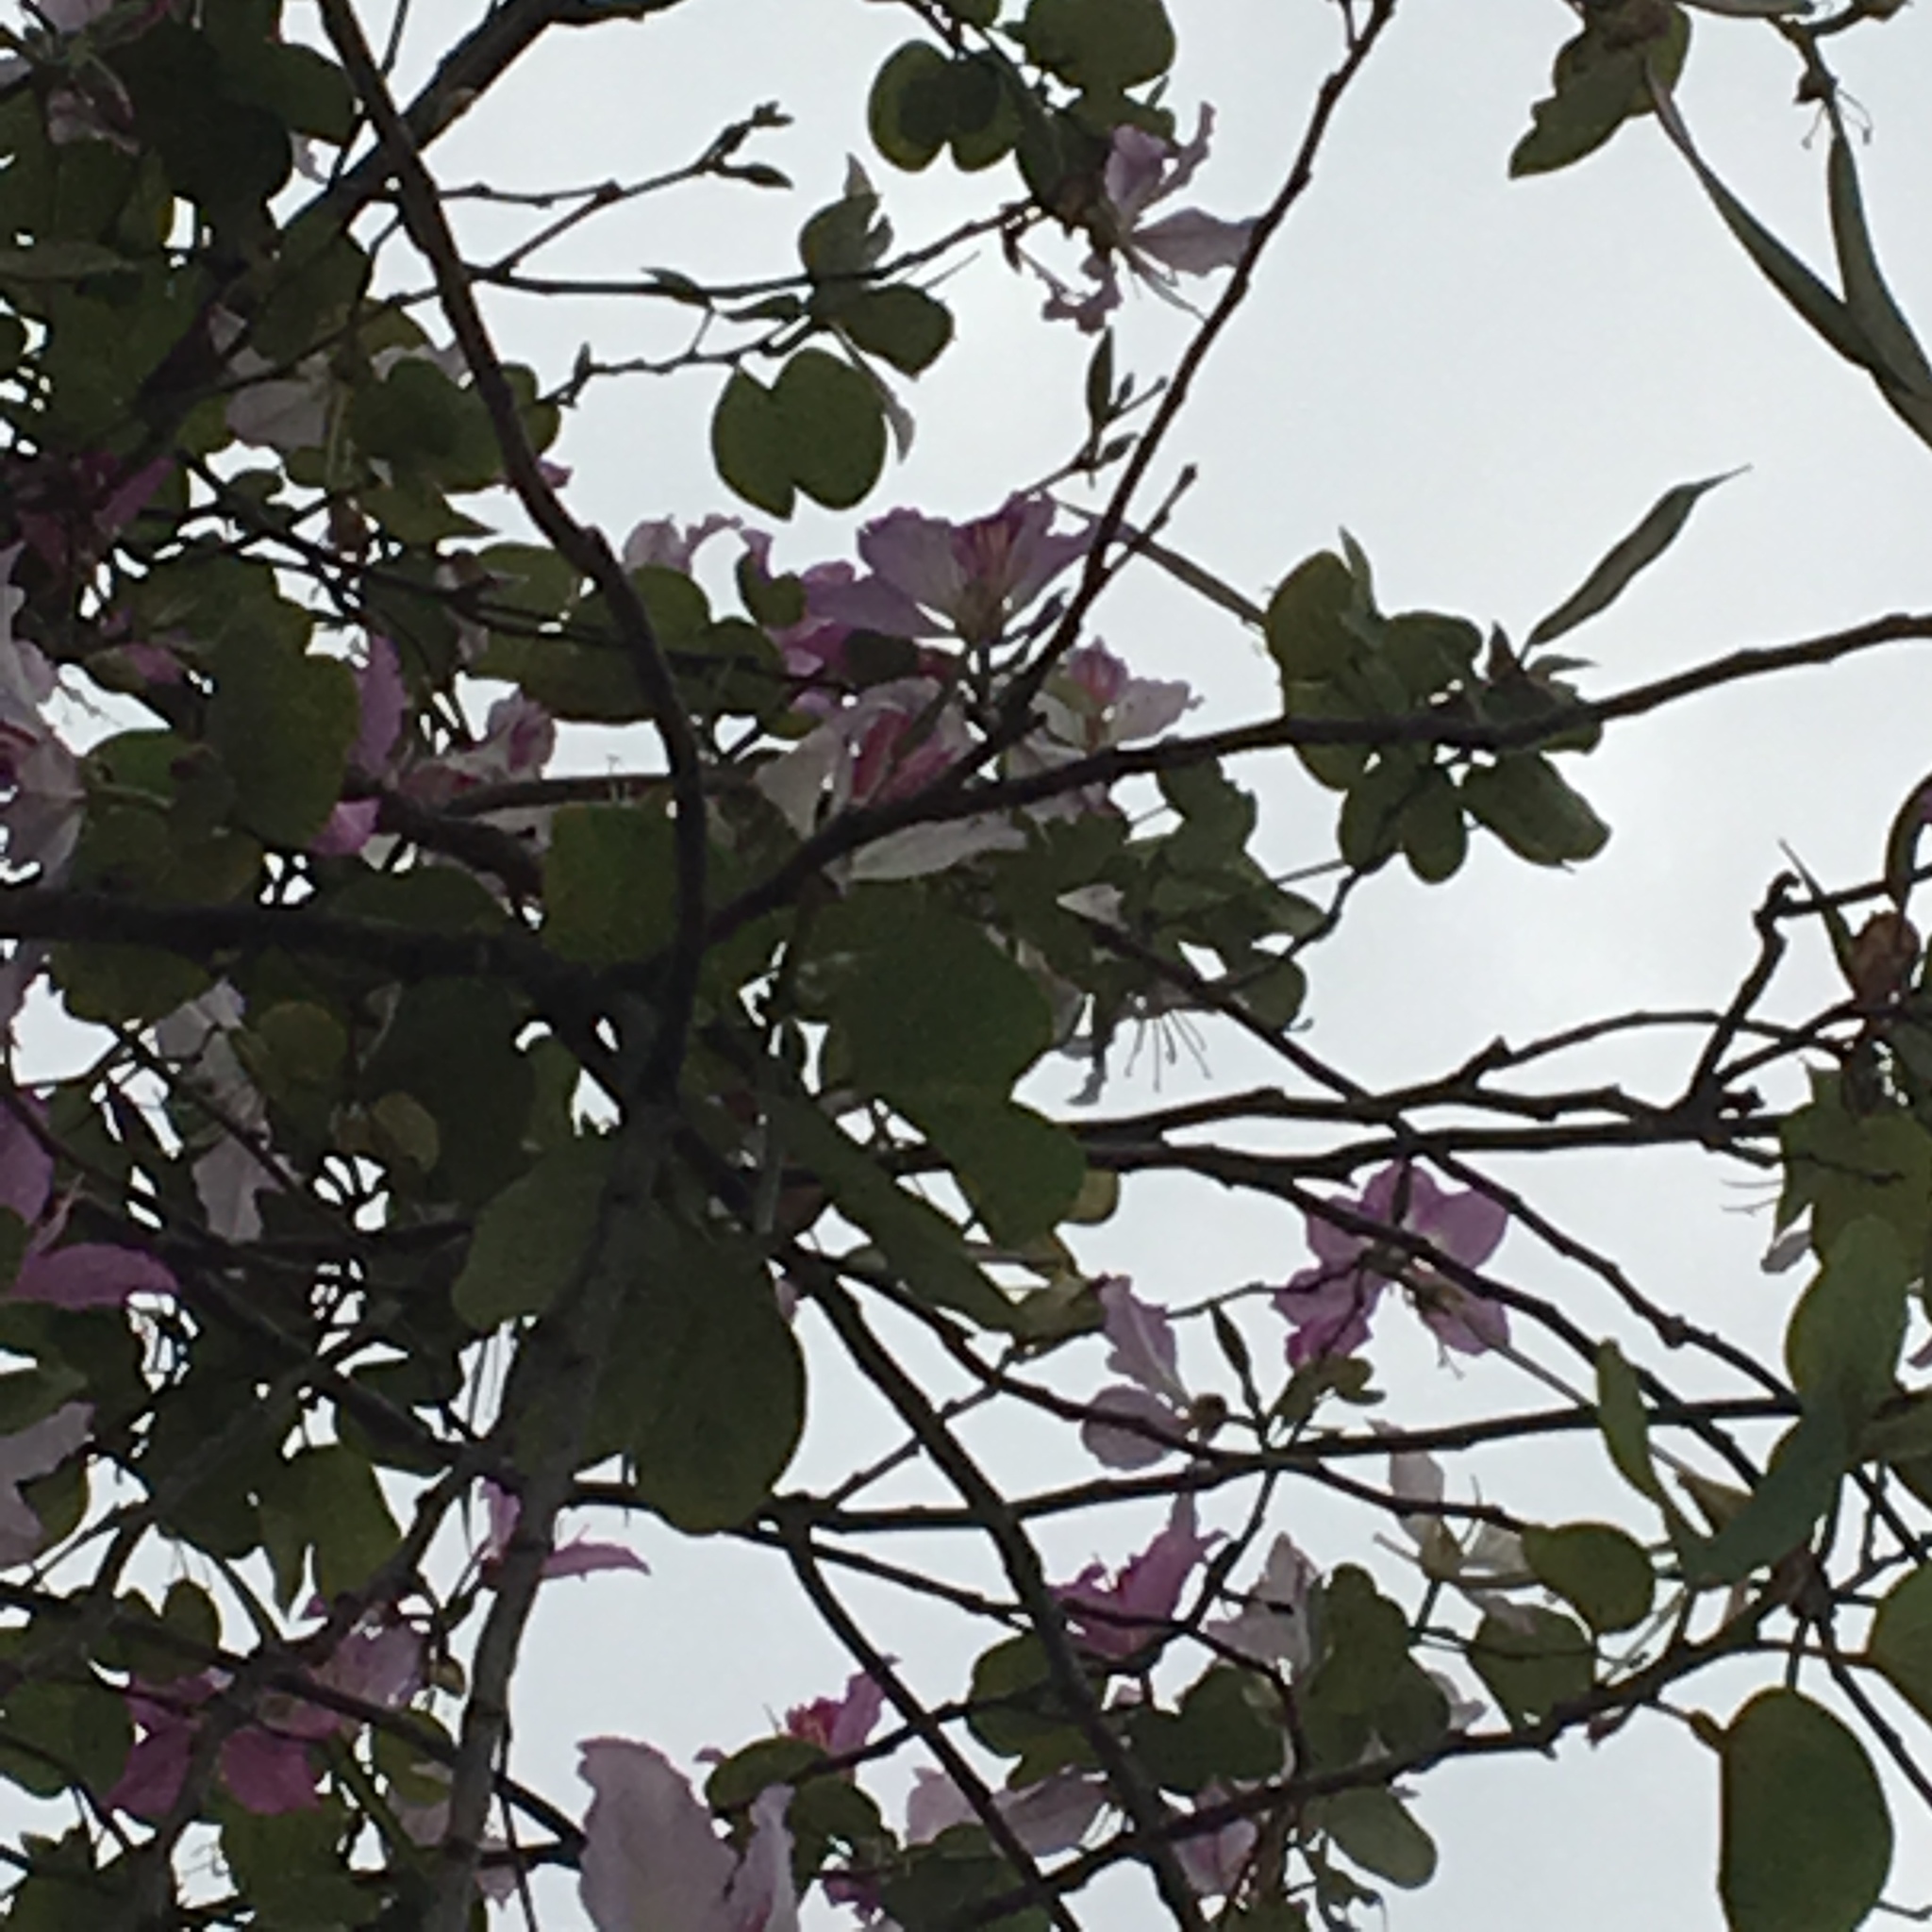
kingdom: Plantae
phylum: Tracheophyta
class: Magnoliopsida
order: Fabales
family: Fabaceae
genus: Bauhinia
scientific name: Bauhinia variegata
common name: Mountain ebony
